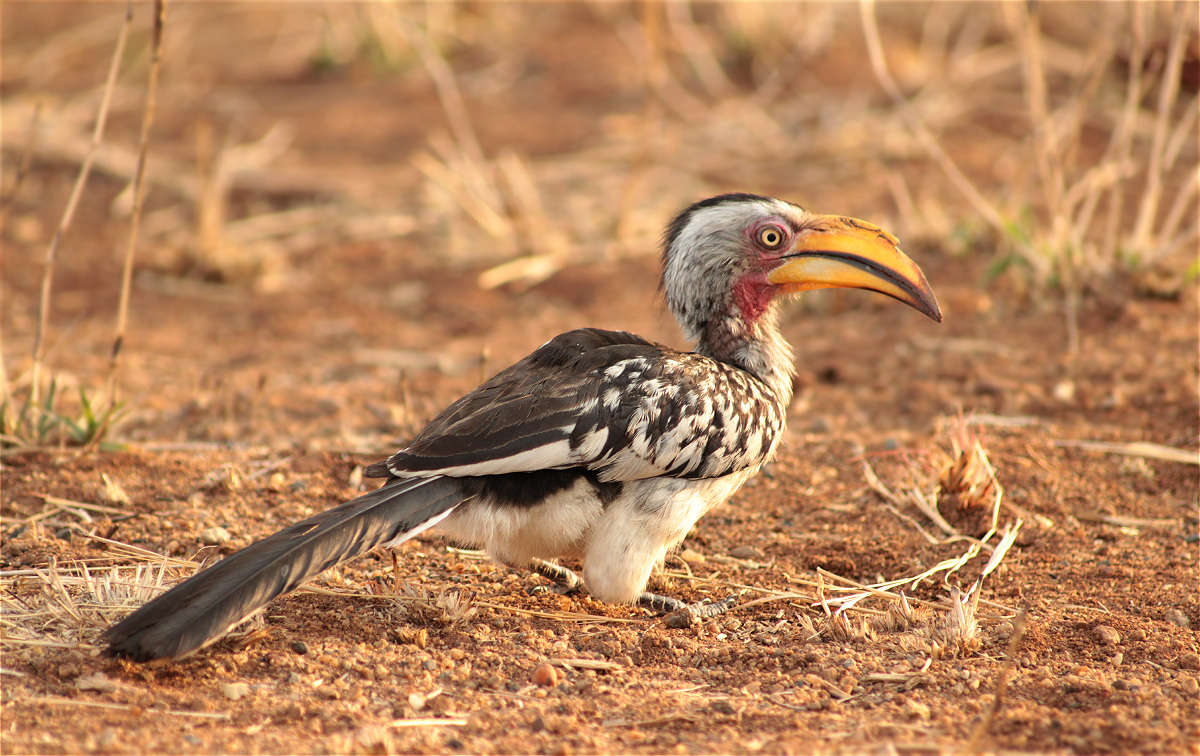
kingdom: Animalia
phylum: Chordata
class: Aves
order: Bucerotiformes
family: Bucerotidae
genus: Tockus
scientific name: Tockus leucomelas
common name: Southern yellow-billed hornbill
